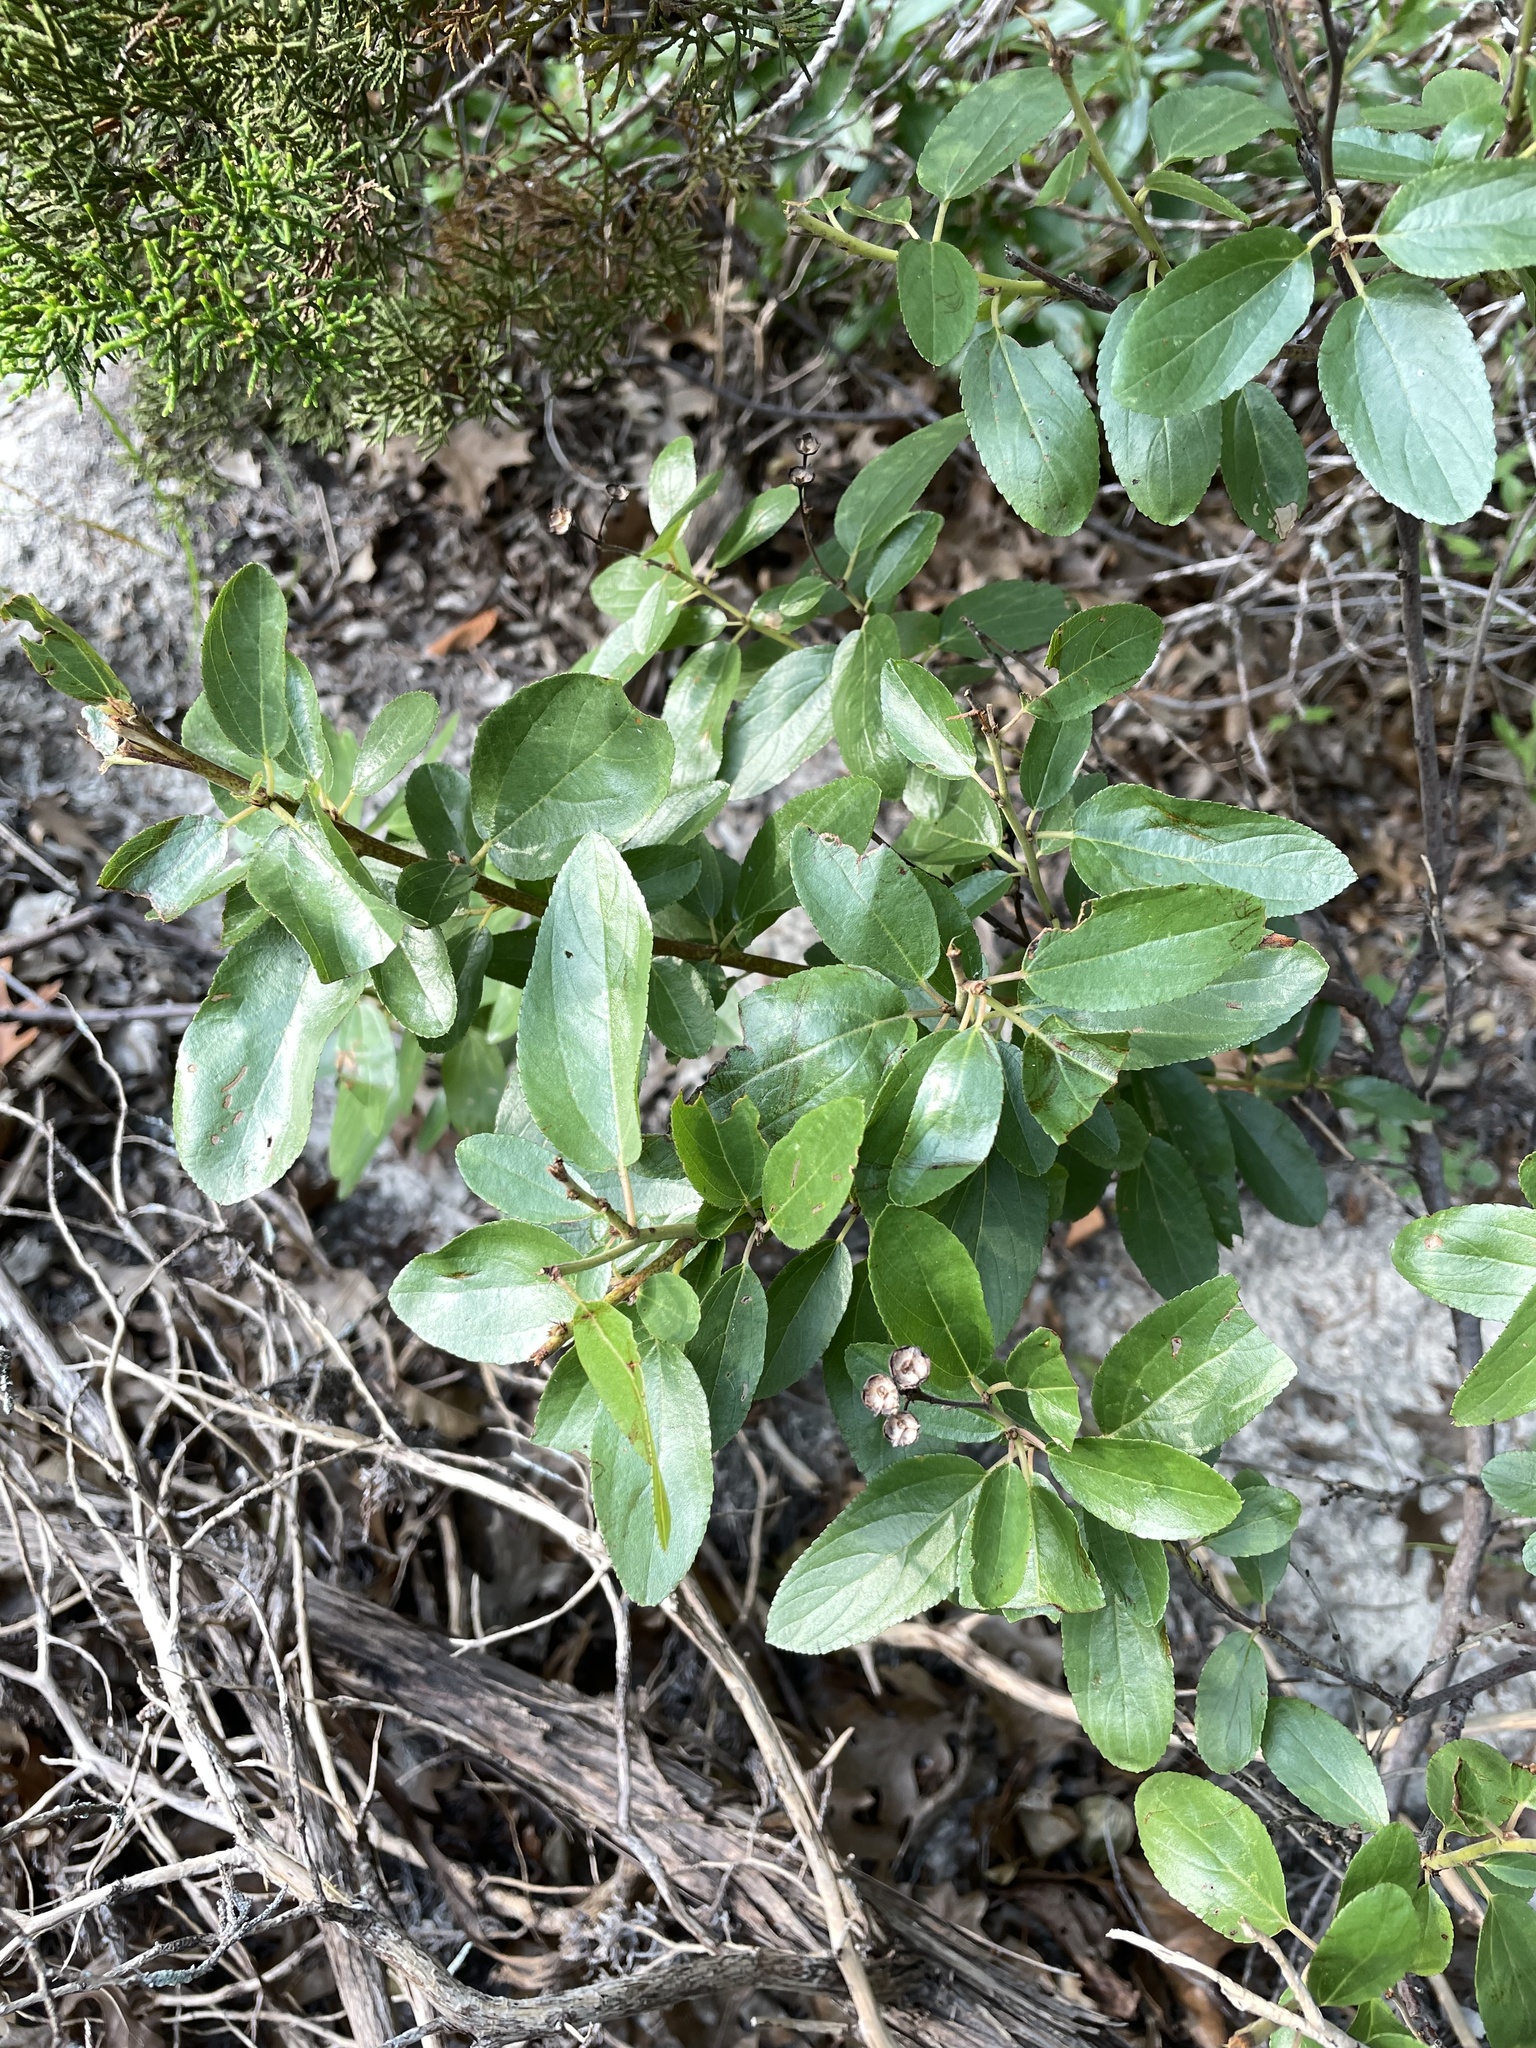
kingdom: Plantae
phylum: Tracheophyta
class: Magnoliopsida
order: Rosales
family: Rhamnaceae
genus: Ceanothus
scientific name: Ceanothus herbaceus
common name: Inland ceanothus
